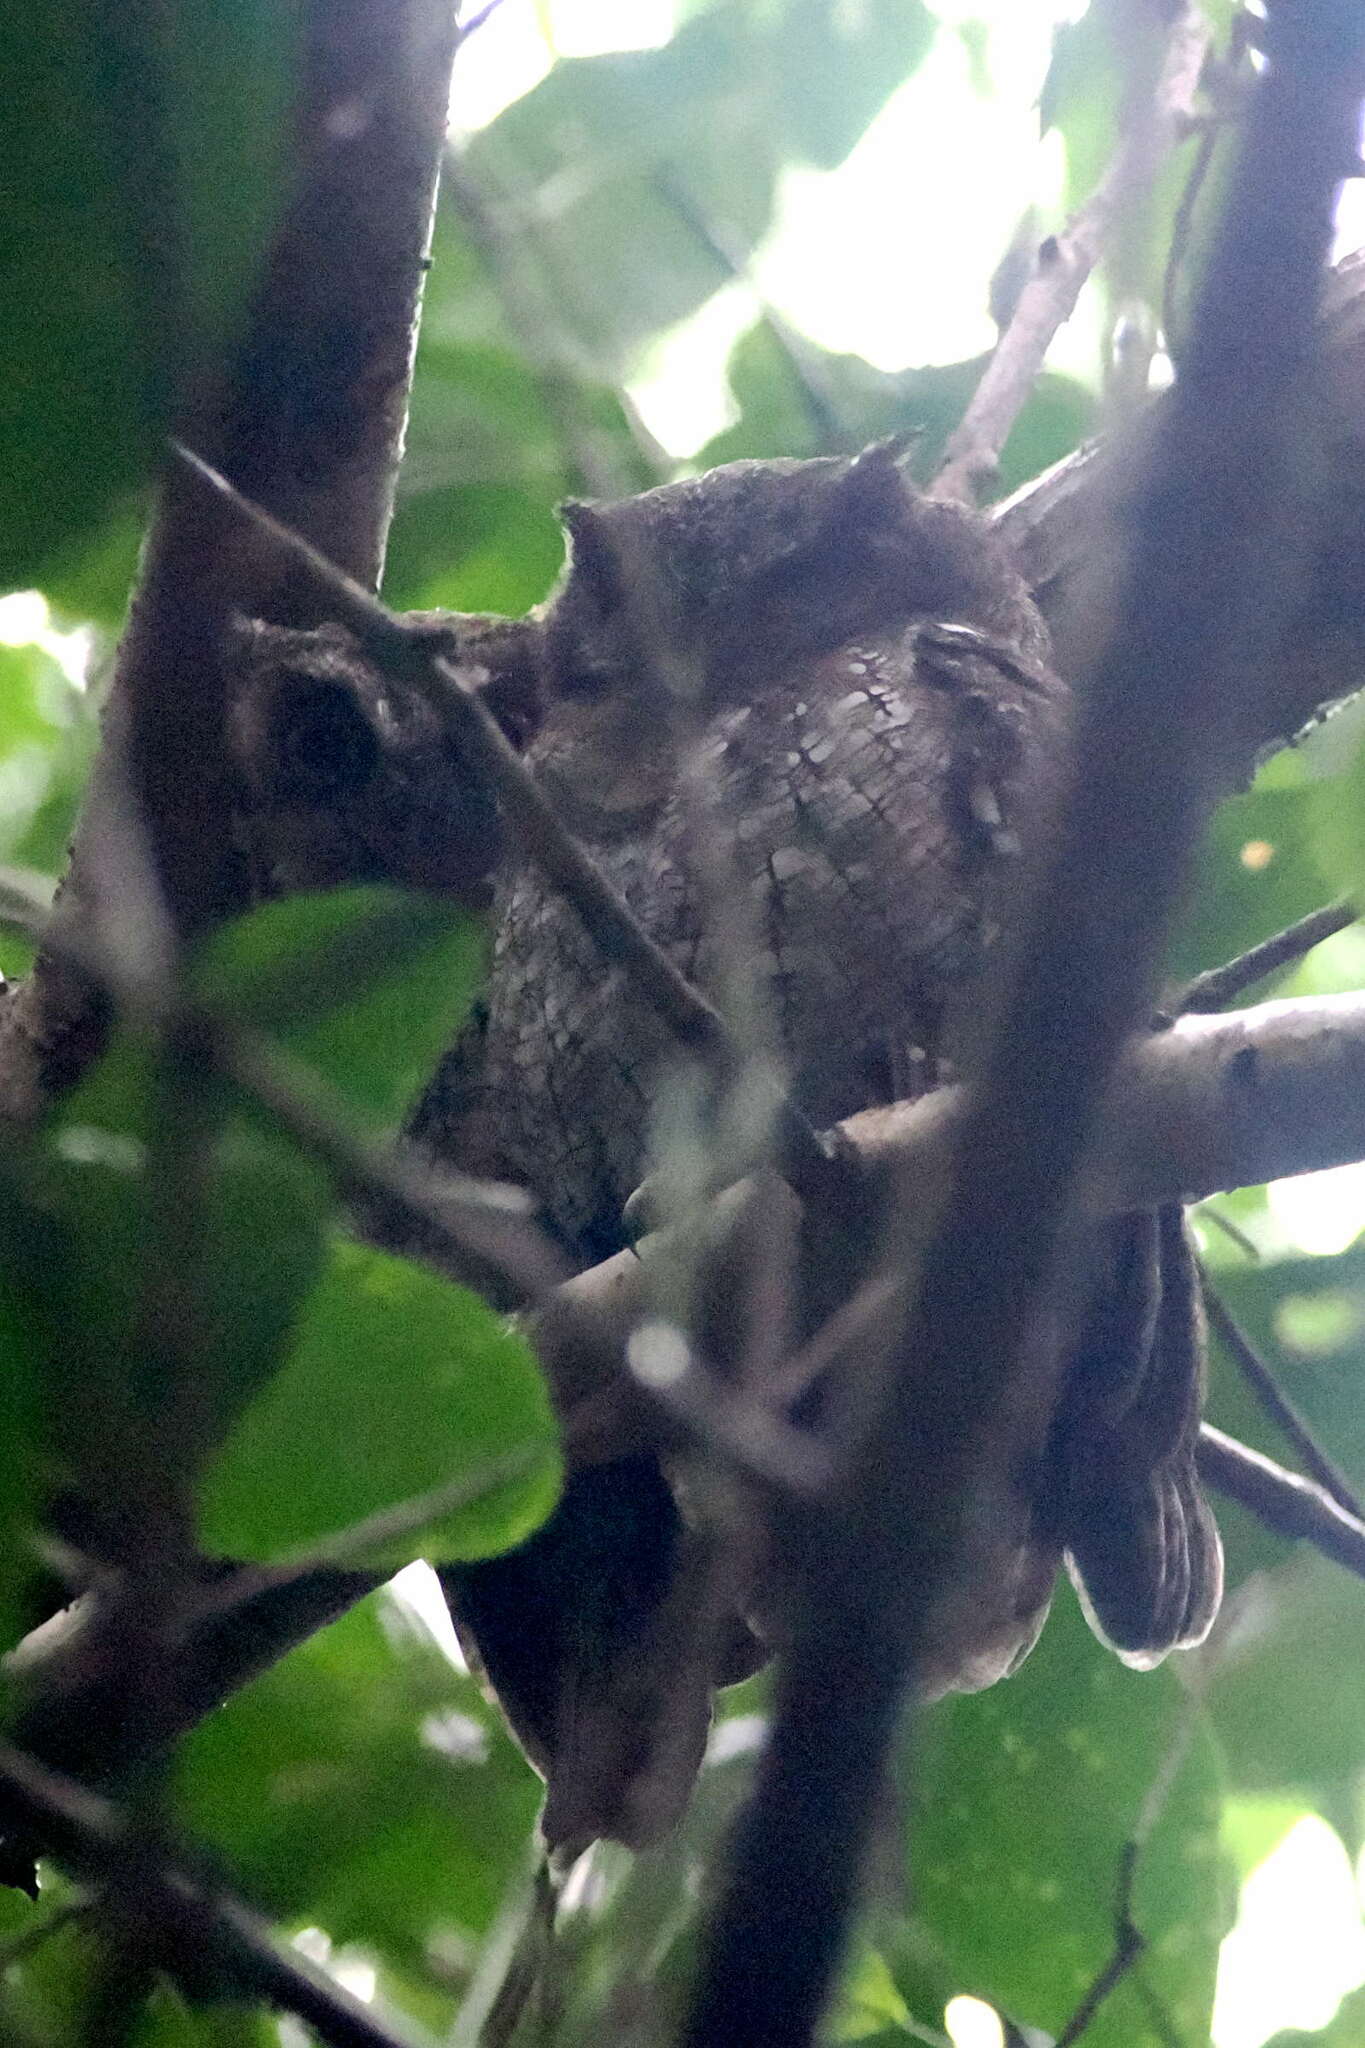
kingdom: Animalia
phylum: Chordata
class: Aves
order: Strigiformes
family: Strigidae
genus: Megascops
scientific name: Megascops choliba
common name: Tropical screech-owl
